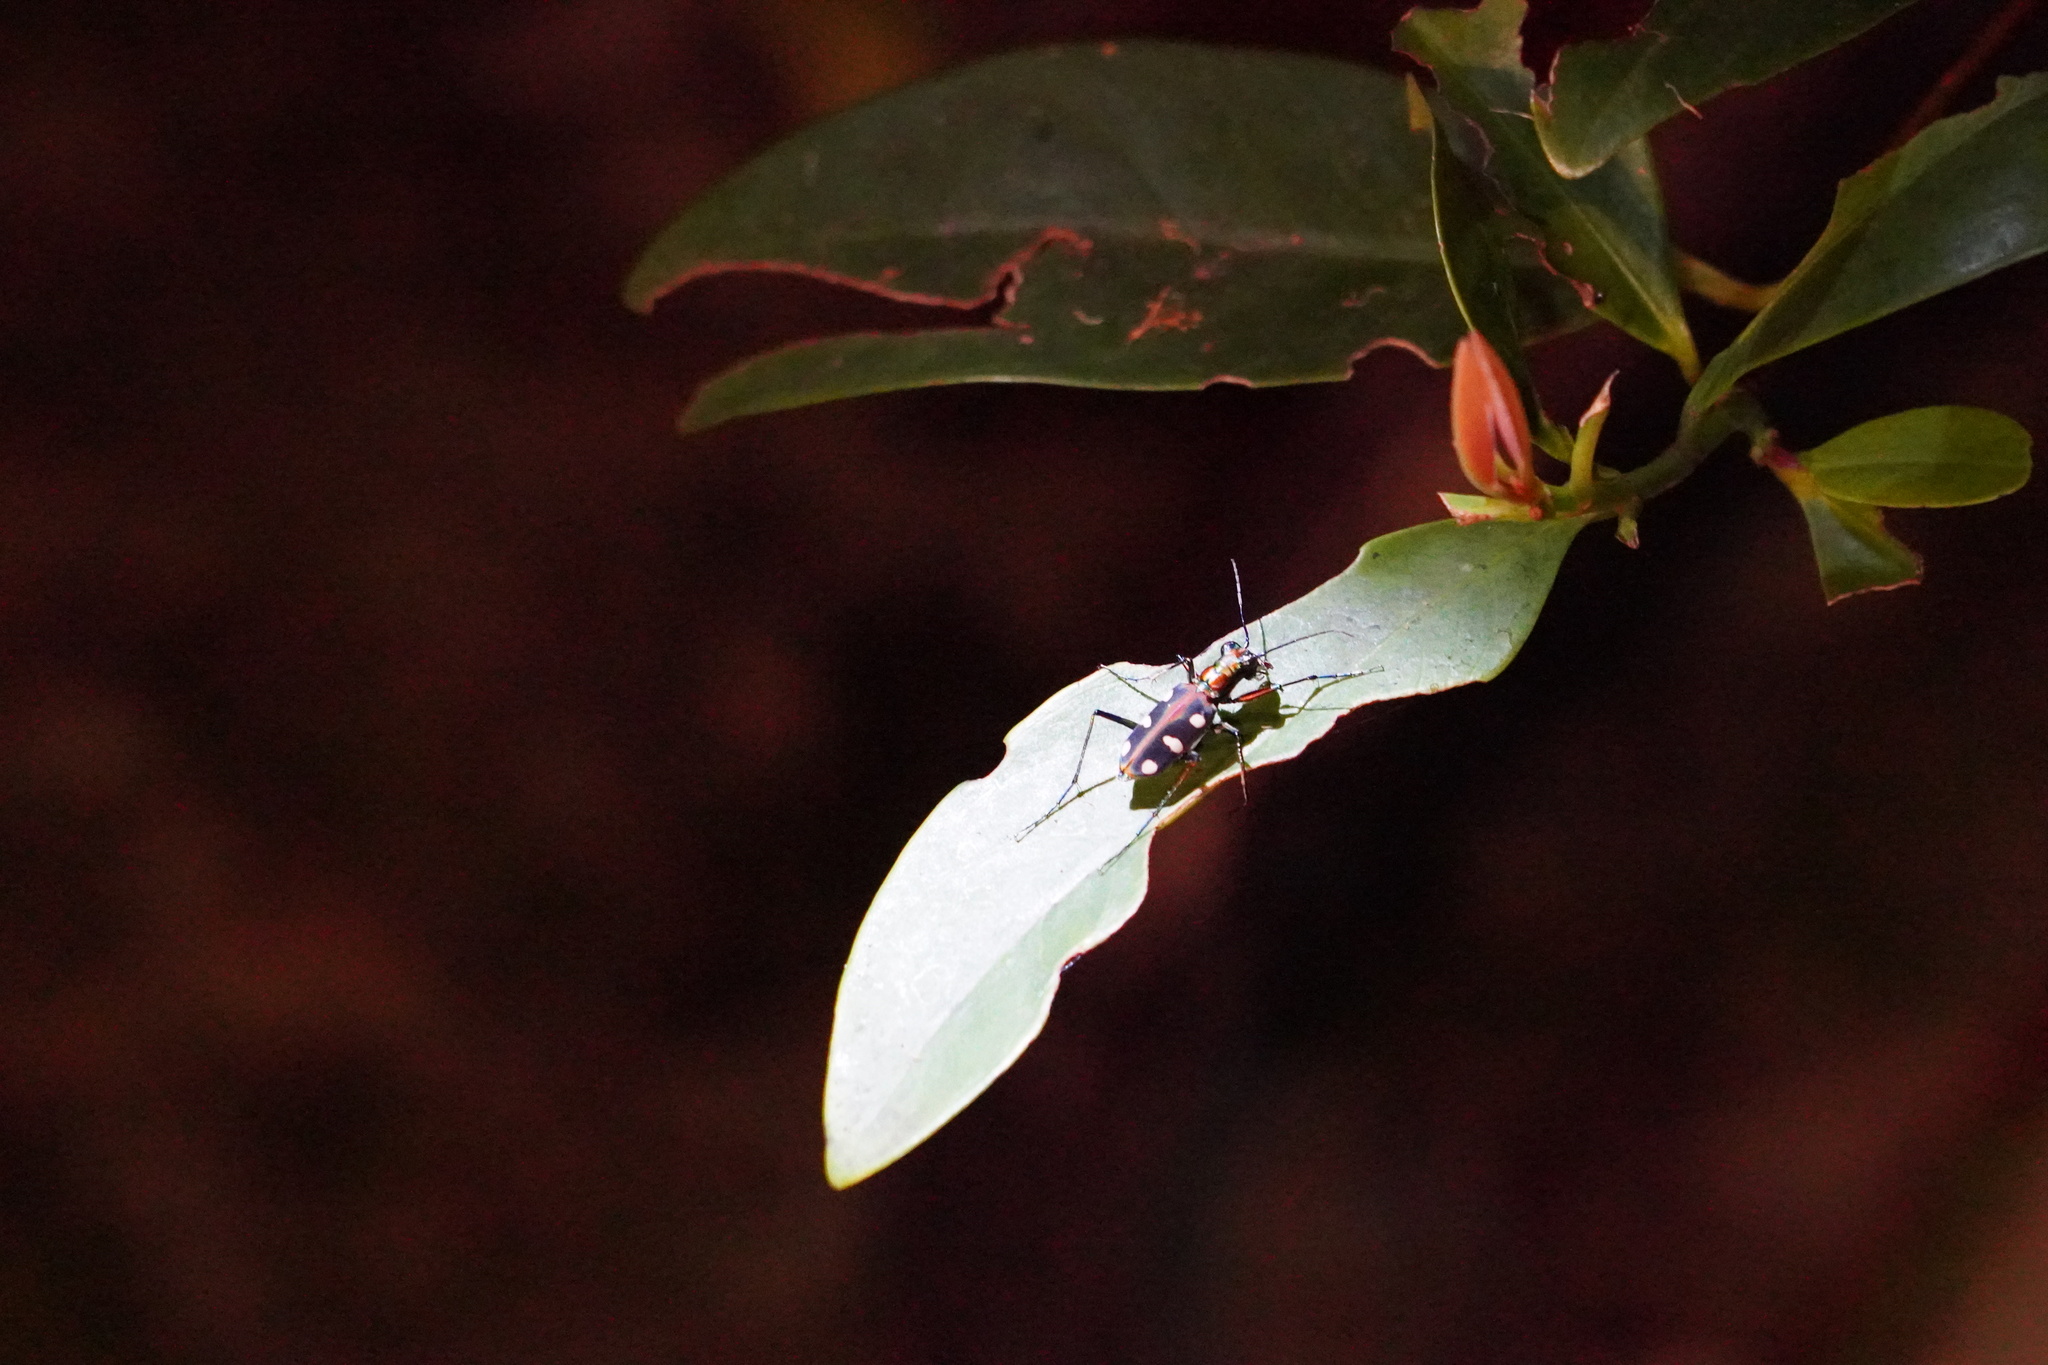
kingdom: Animalia
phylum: Arthropoda
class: Insecta
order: Coleoptera
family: Carabidae
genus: Cicindela
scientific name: Cicindela aurulenta
